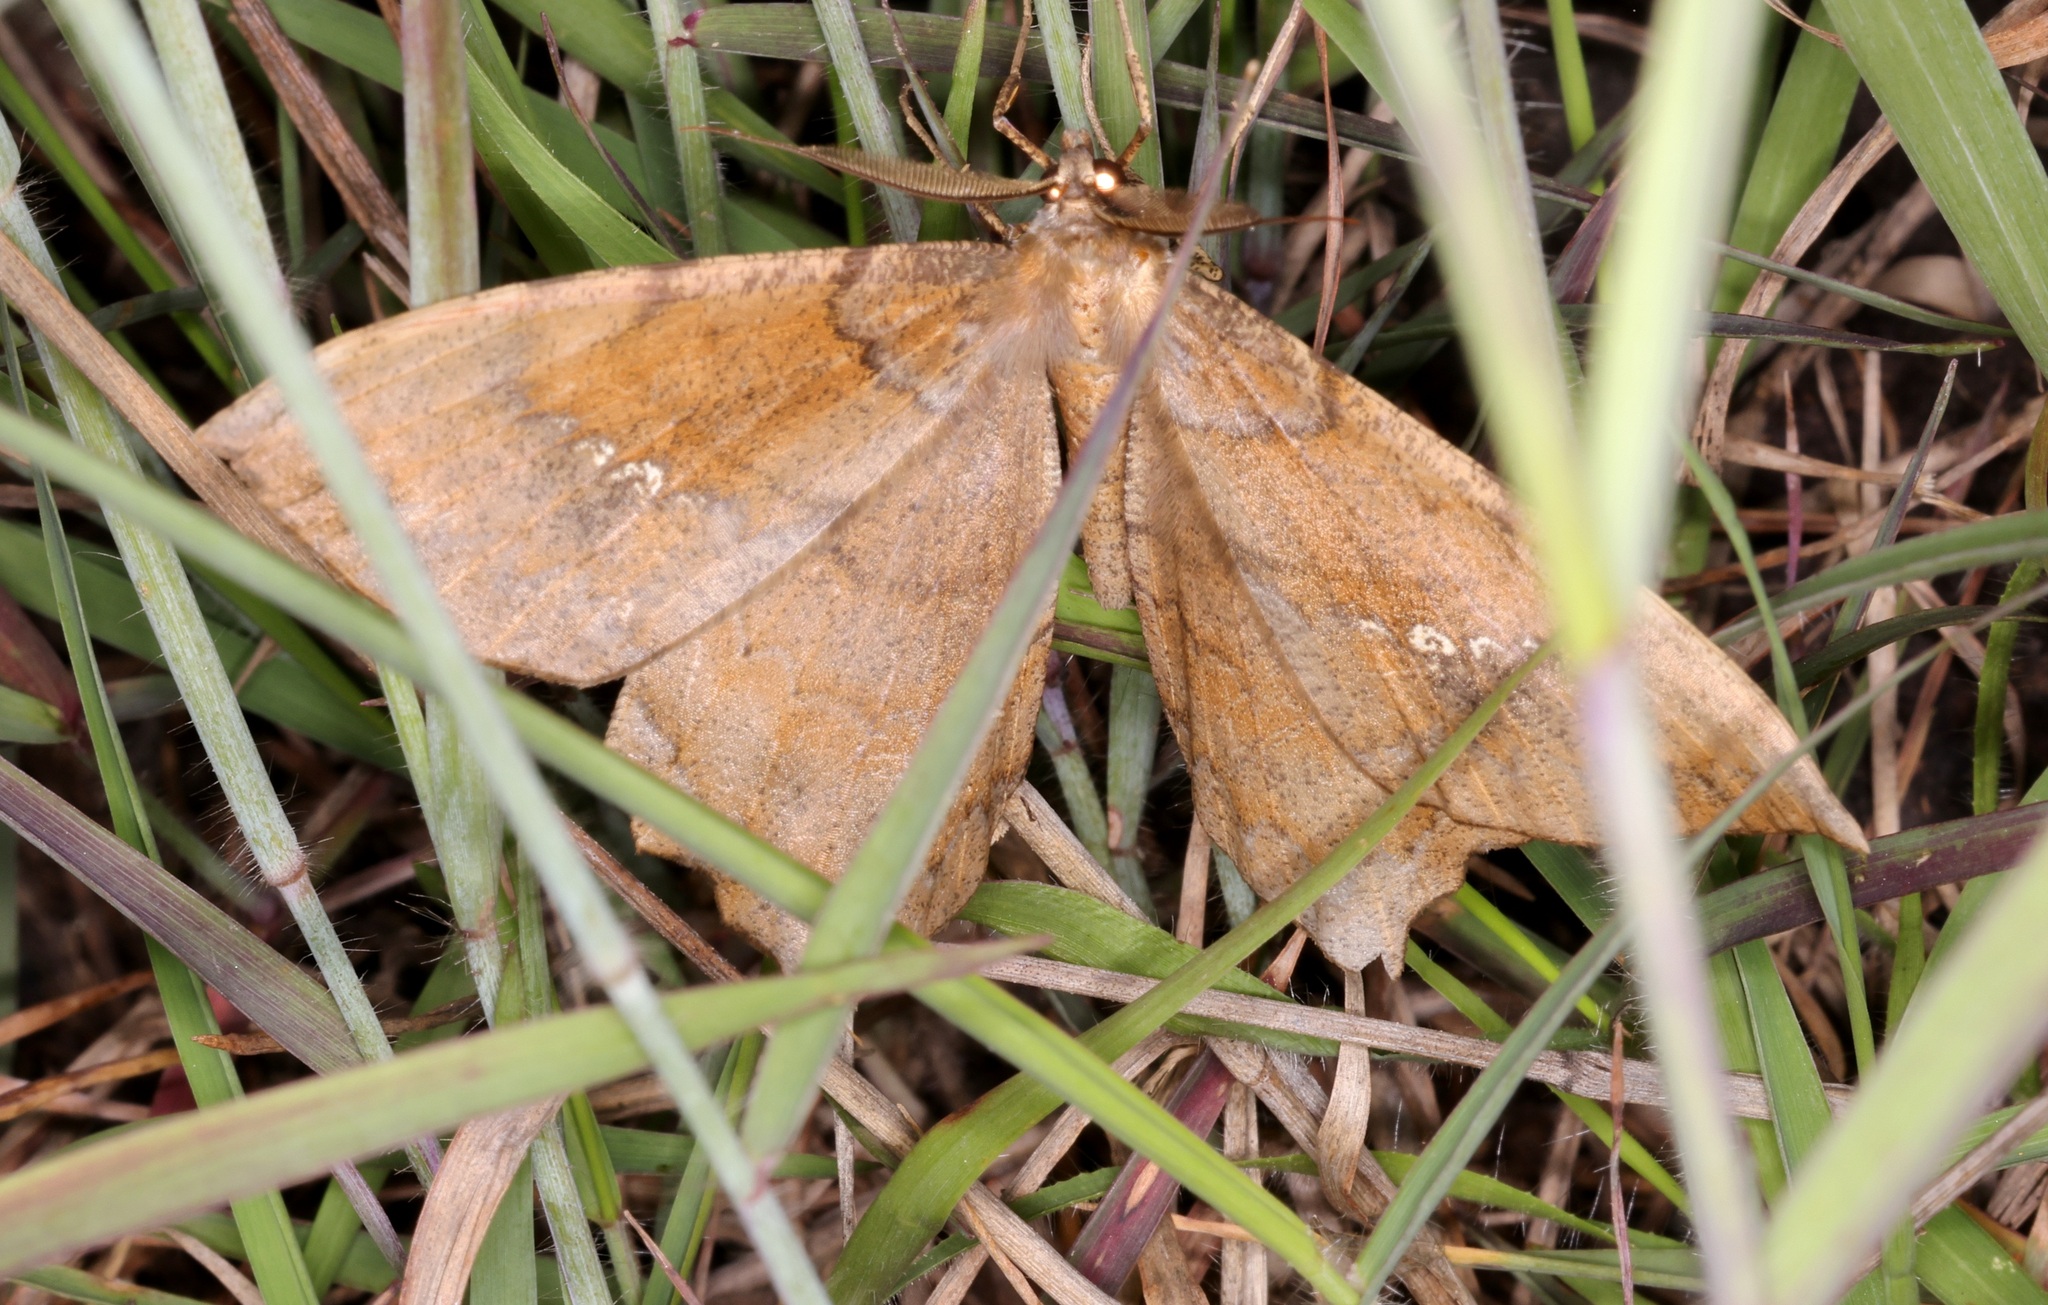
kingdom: Animalia
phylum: Arthropoda
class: Insecta
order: Lepidoptera
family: Geometridae
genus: Amblychia
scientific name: Amblychia angeronaria
